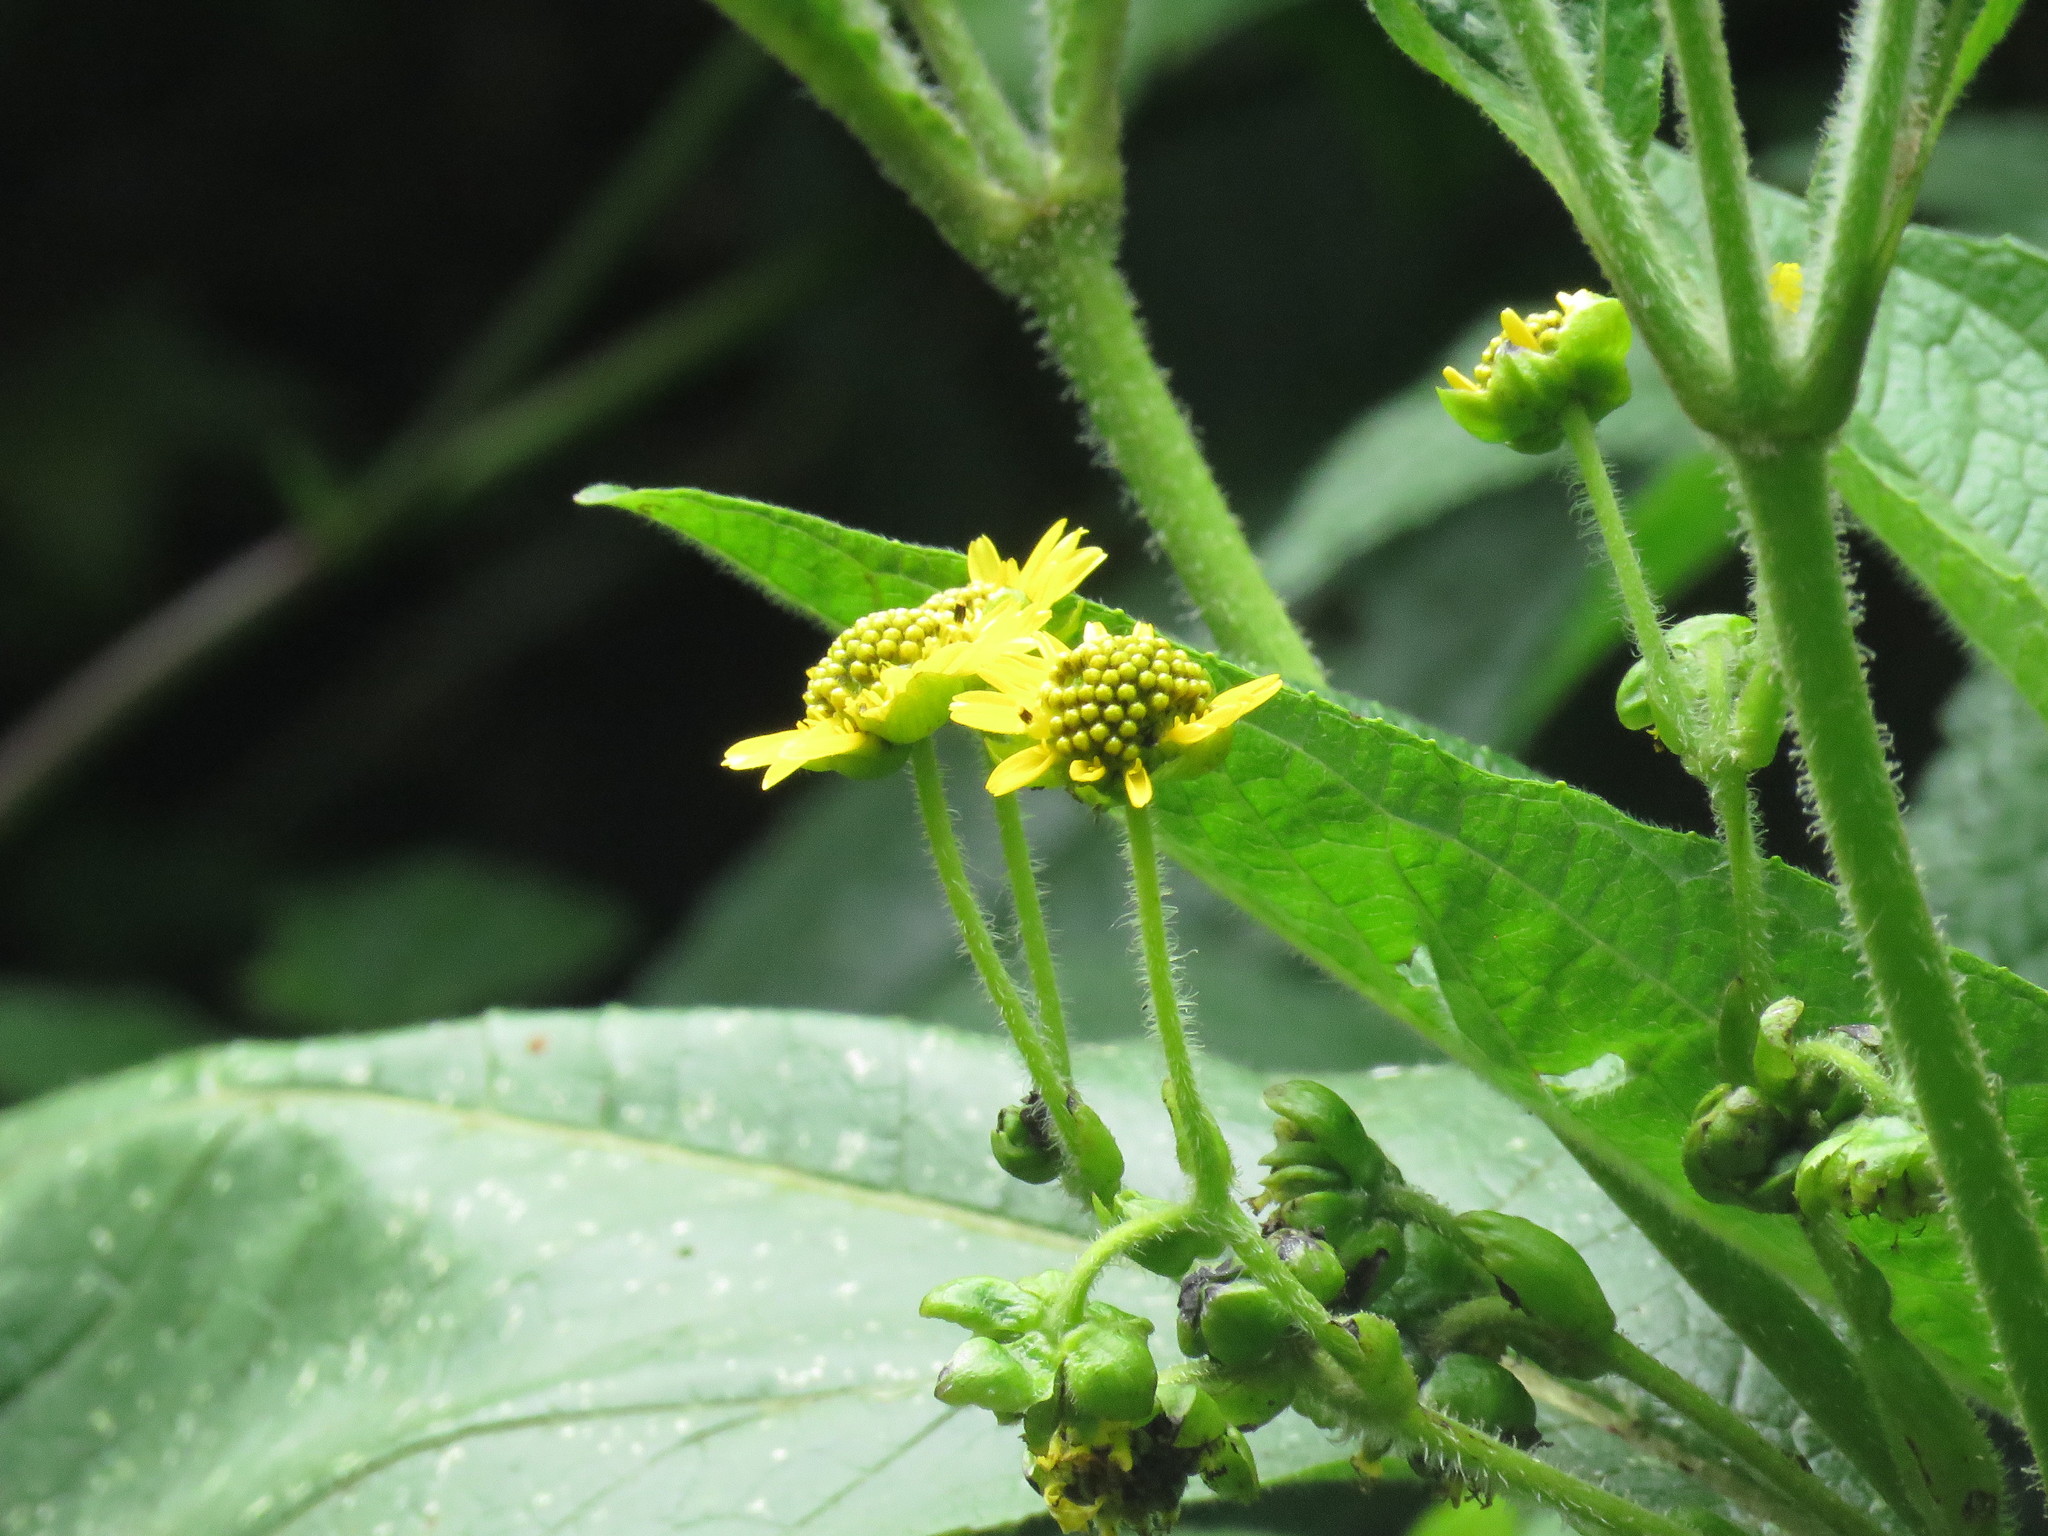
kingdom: Plantae
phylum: Tracheophyta
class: Magnoliopsida
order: Asterales
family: Asteraceae
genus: Smallanthus
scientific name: Smallanthus pyramidalis
